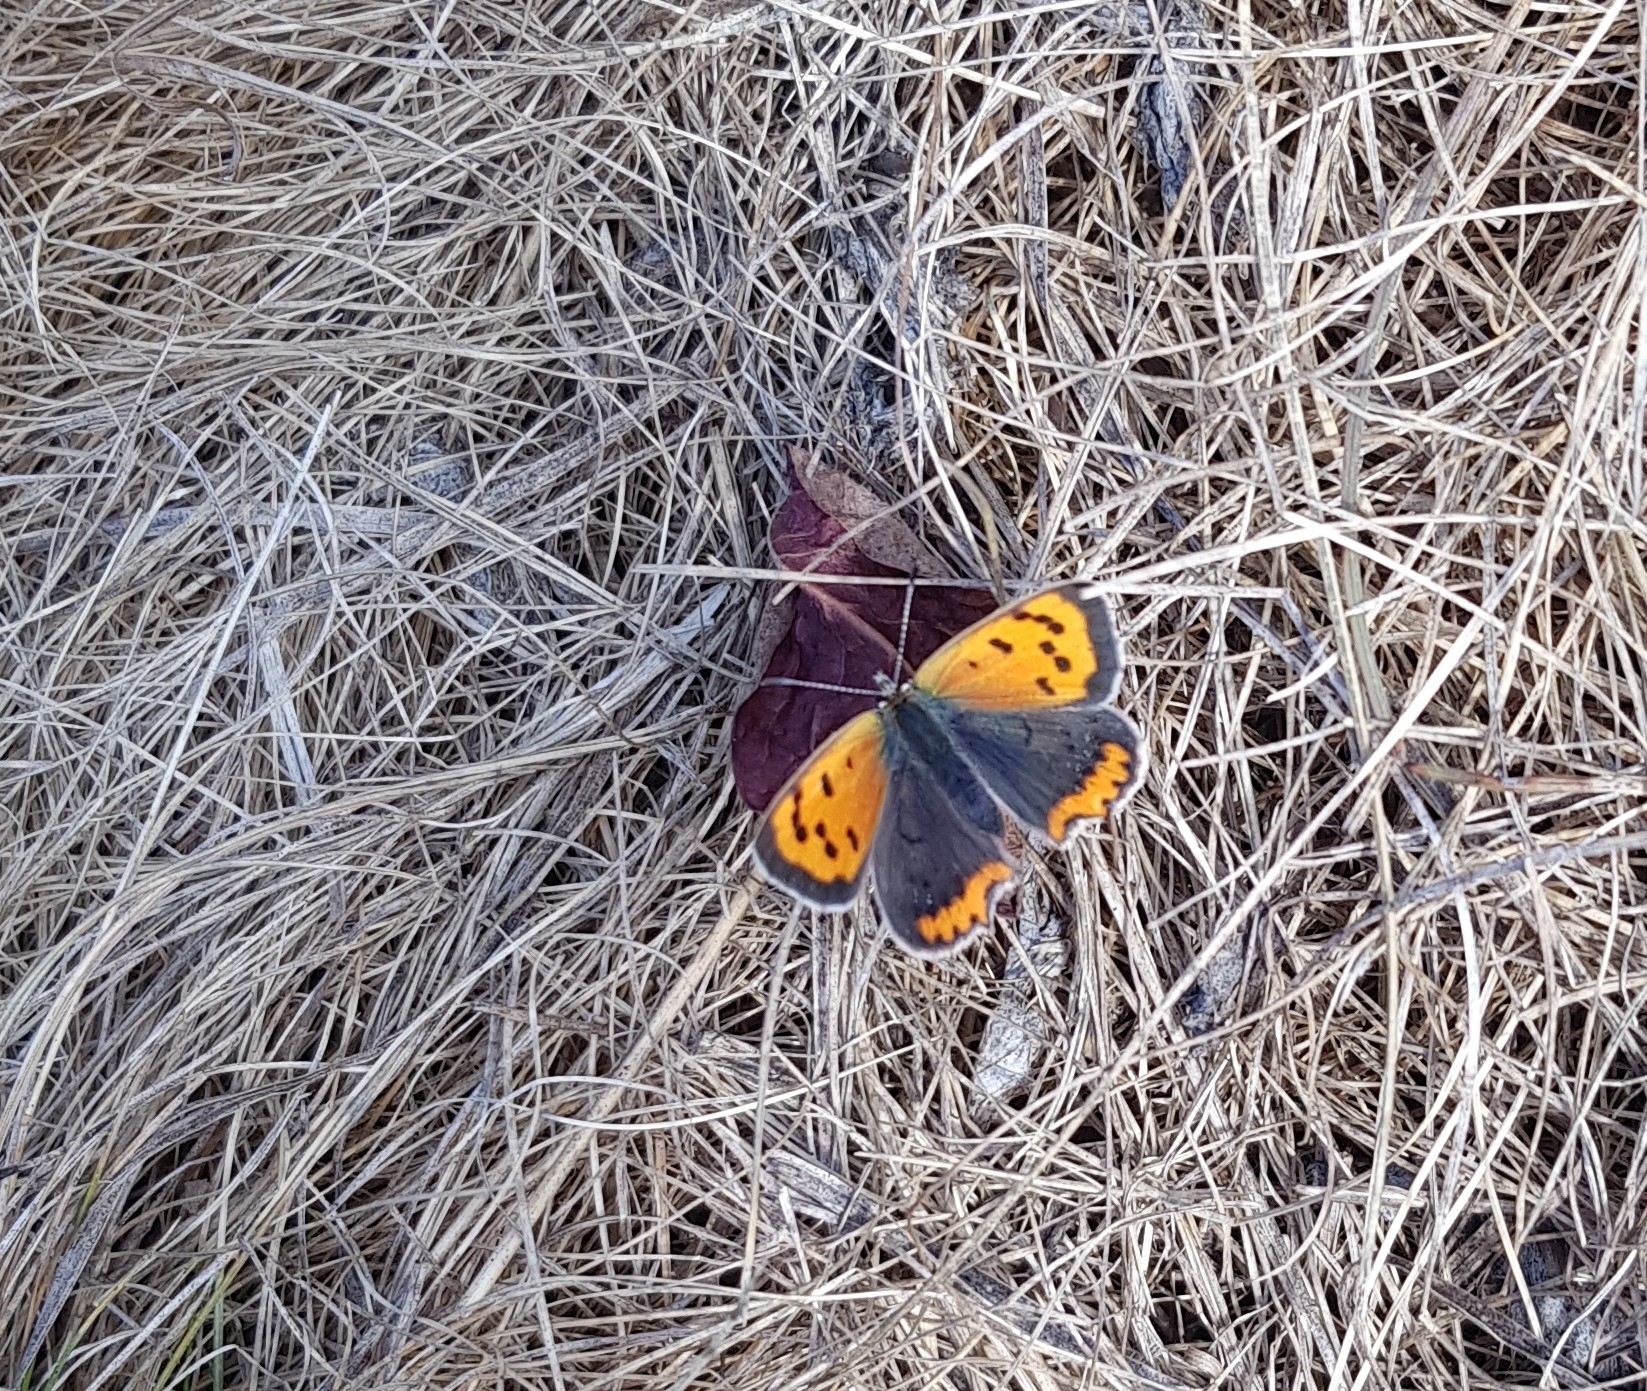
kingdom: Animalia
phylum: Arthropoda
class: Insecta
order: Lepidoptera
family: Lycaenidae
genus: Lycaena
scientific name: Lycaena phlaeas
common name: Small copper
